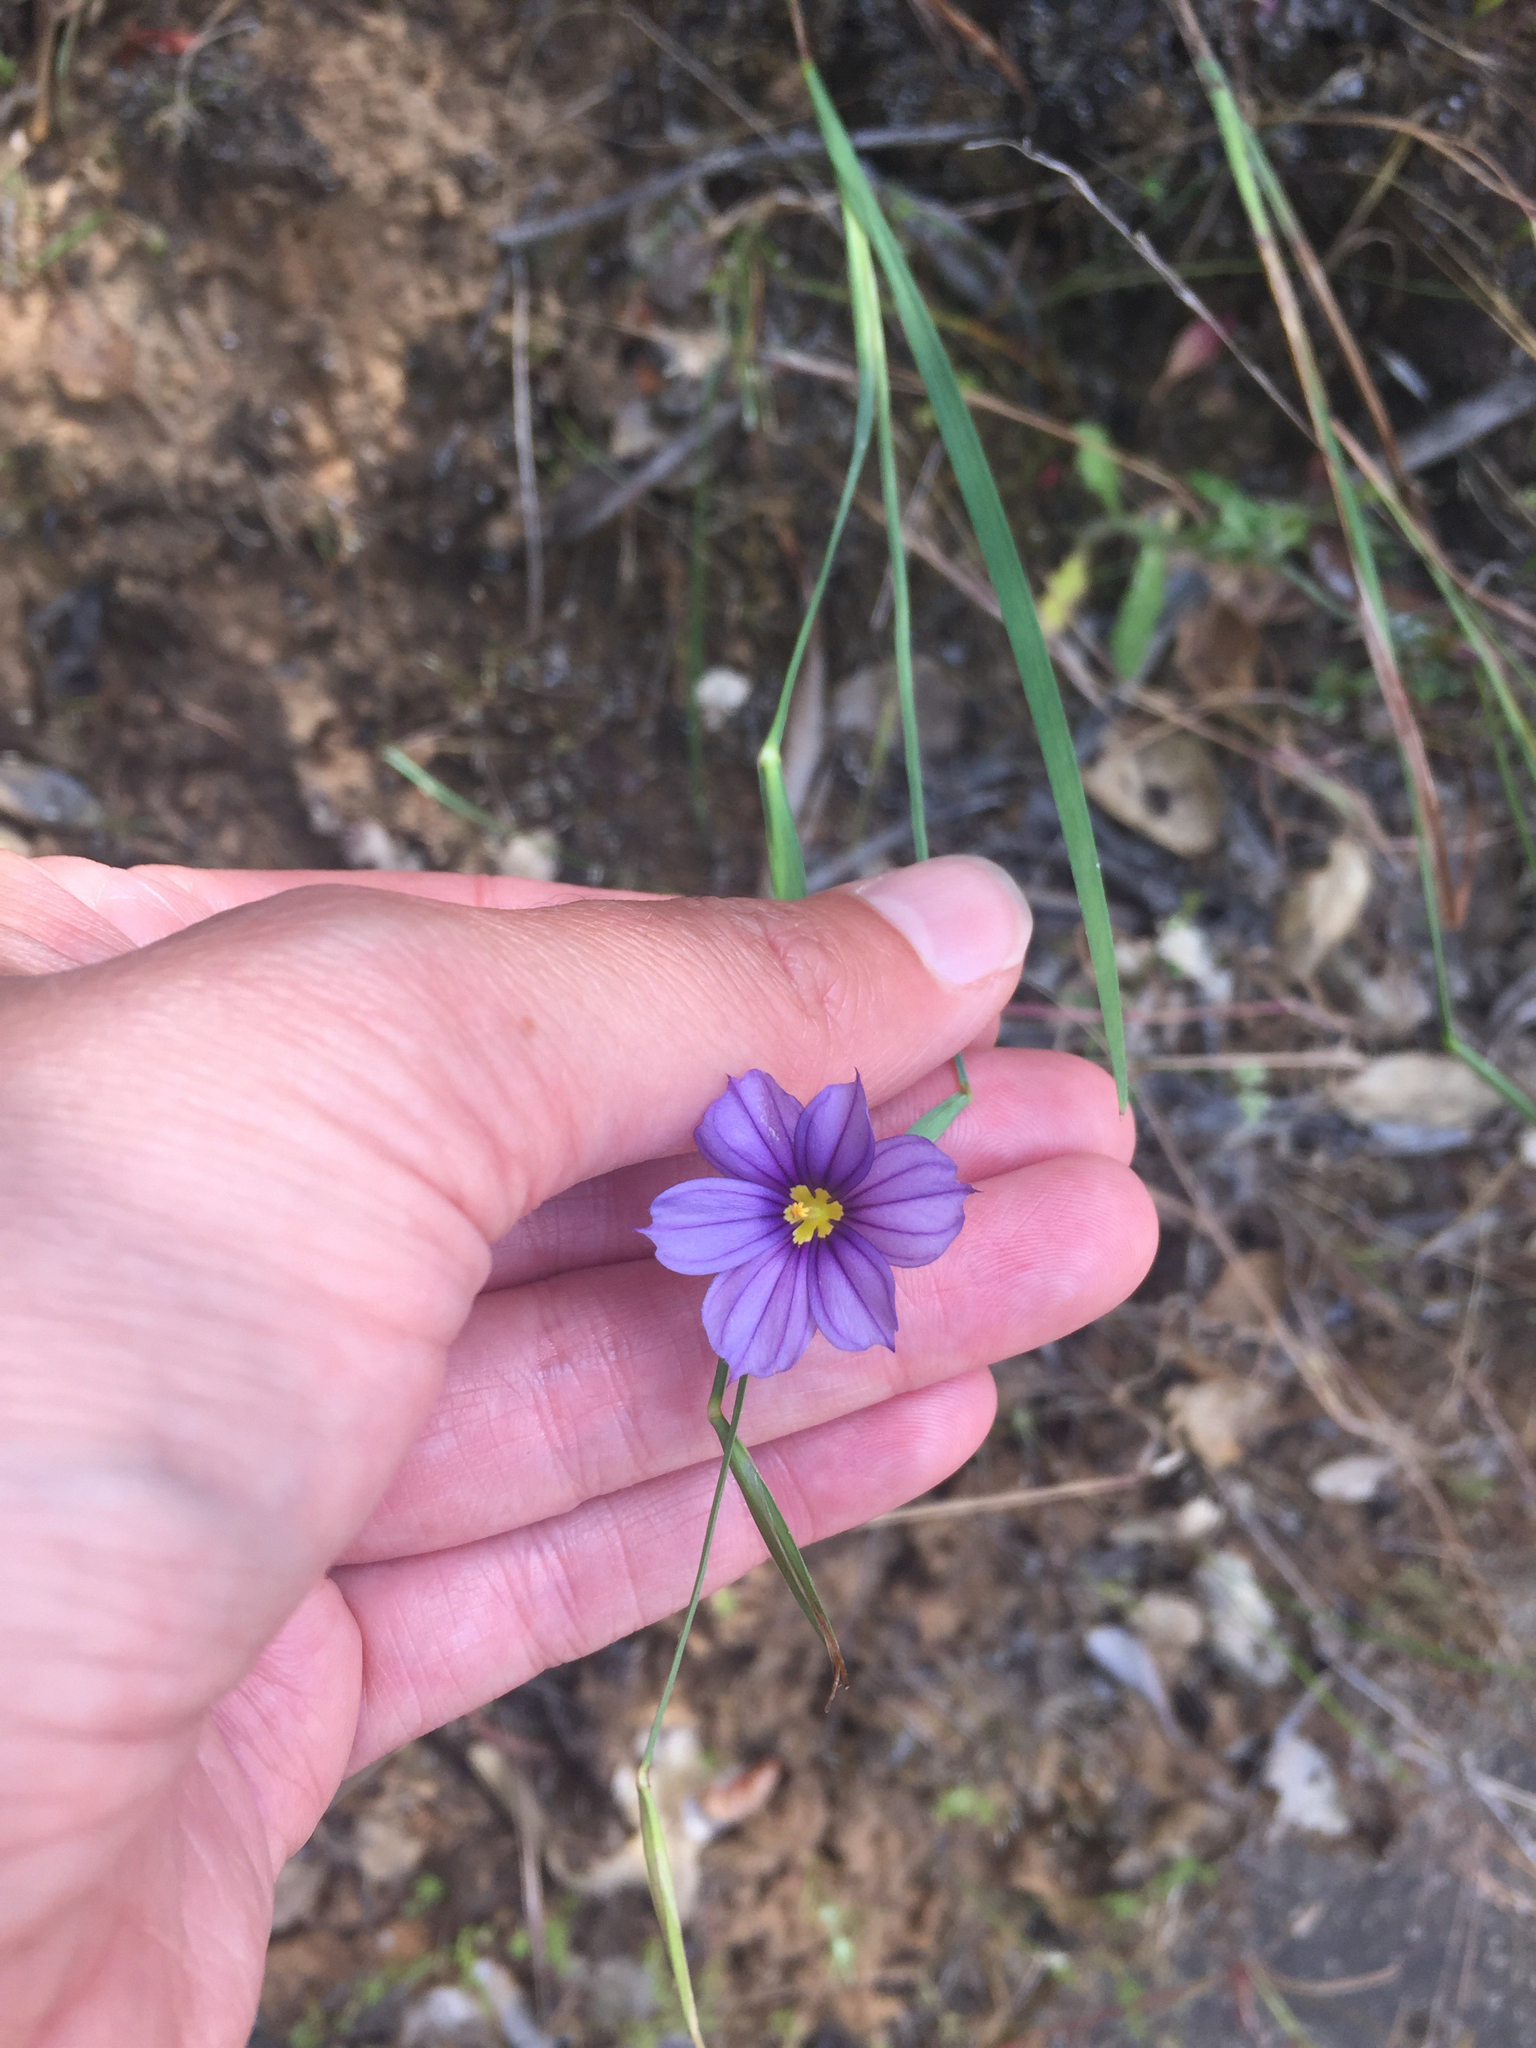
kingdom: Plantae
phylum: Tracheophyta
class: Liliopsida
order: Asparagales
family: Iridaceae
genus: Sisyrinchium
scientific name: Sisyrinchium bellum
